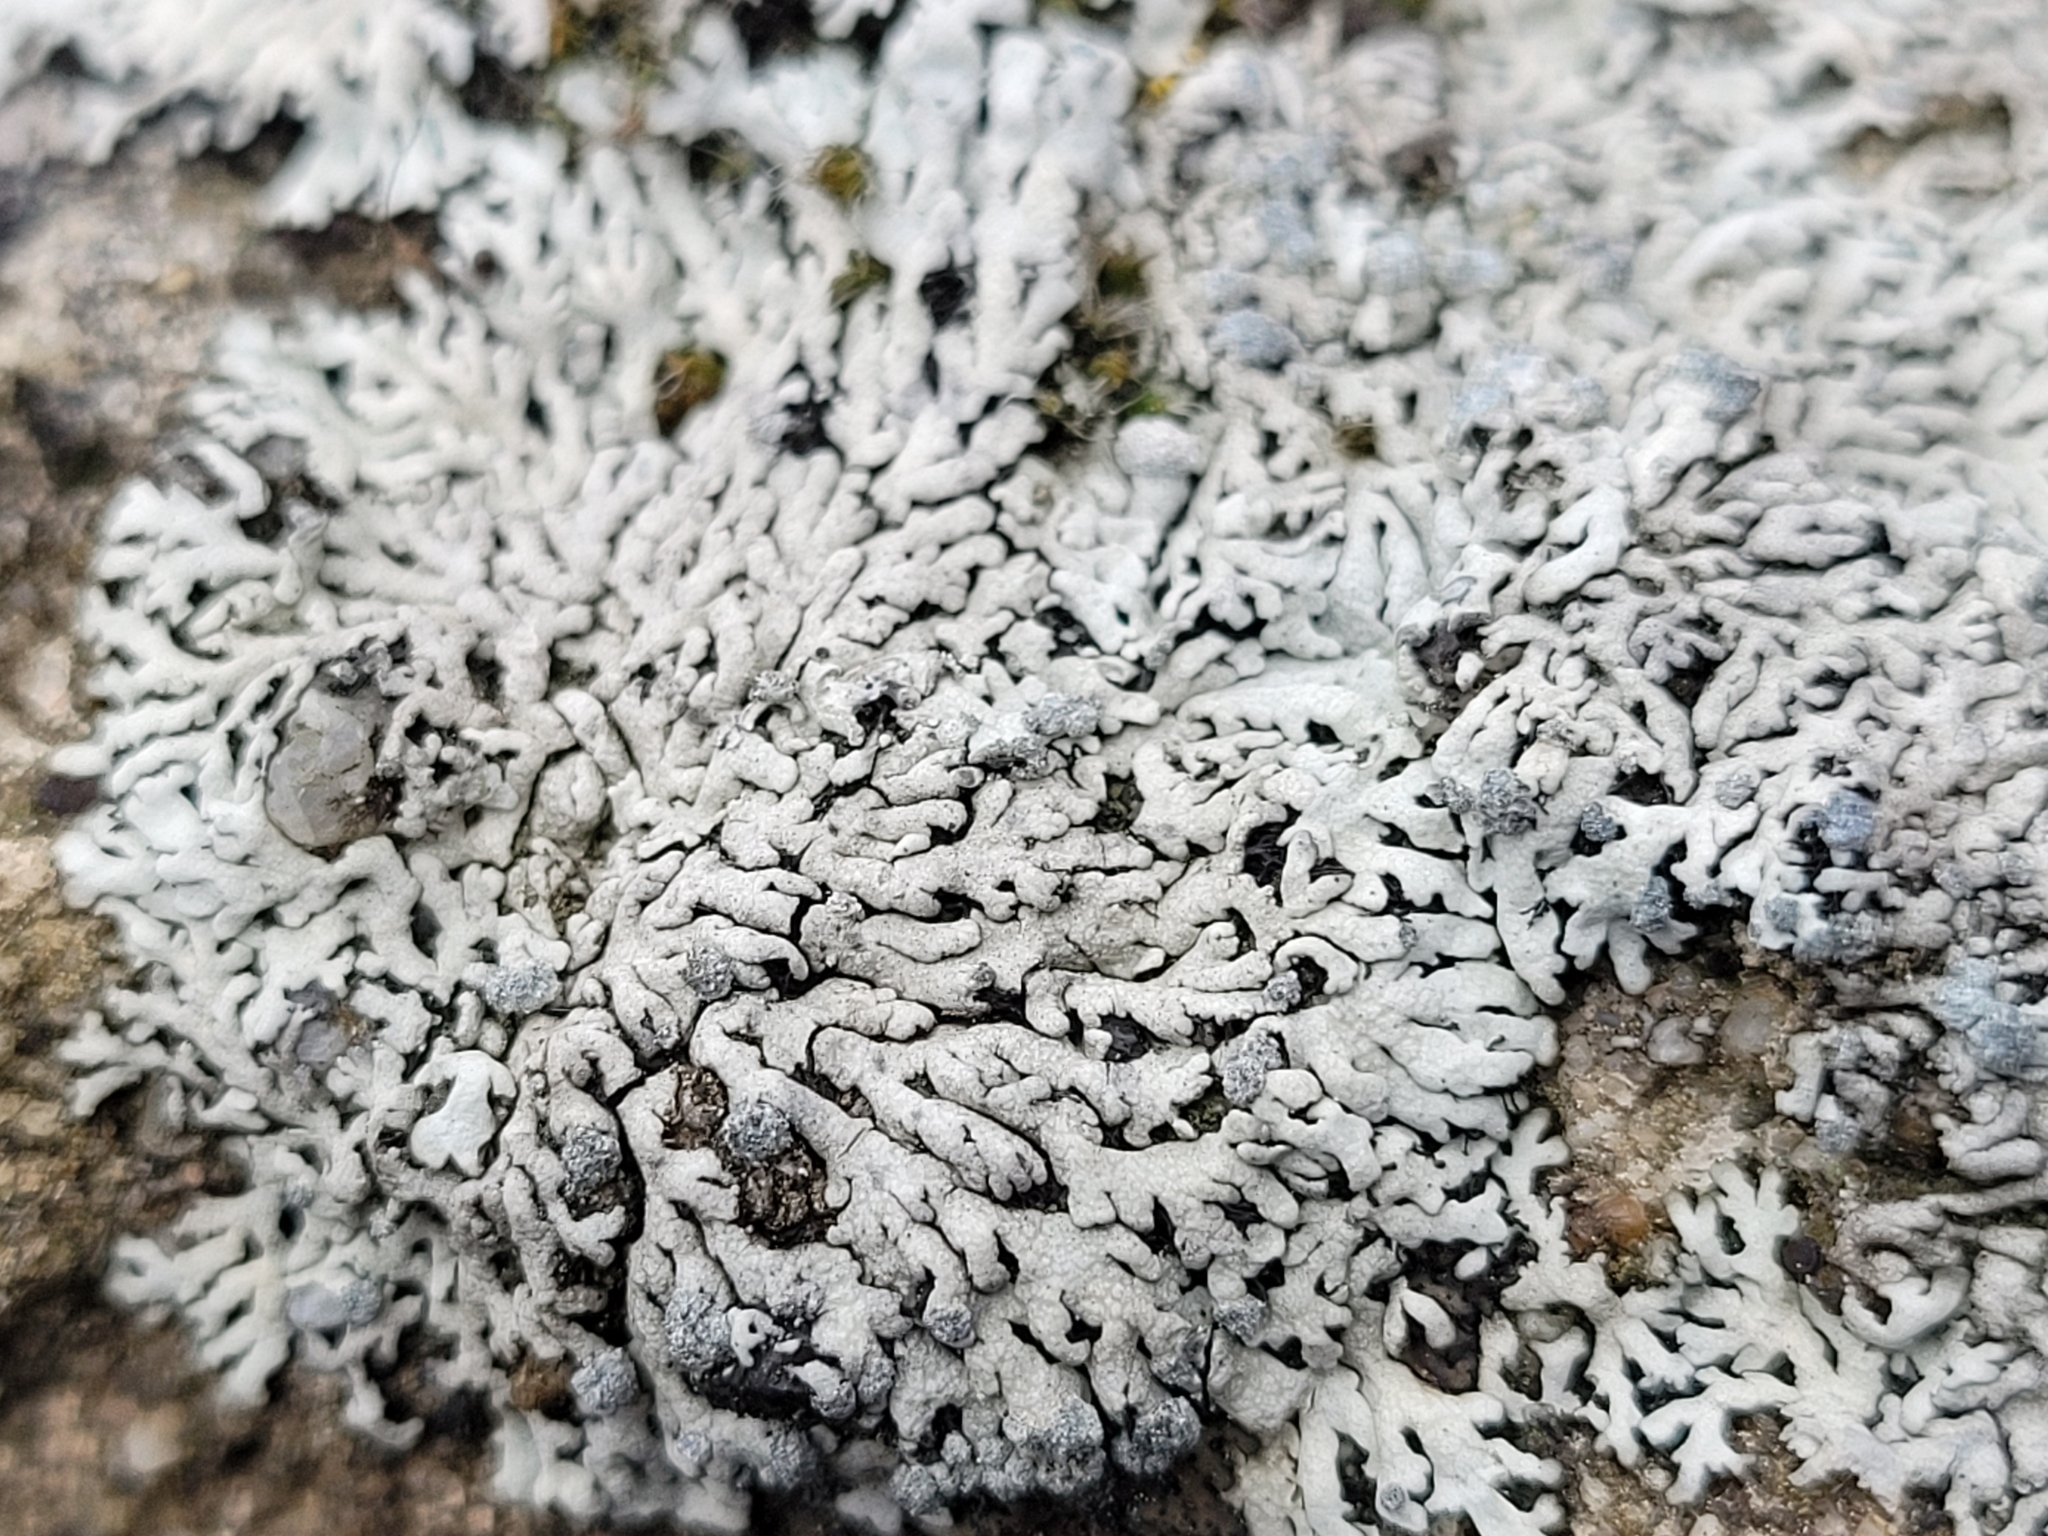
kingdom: Fungi
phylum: Ascomycota
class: Lecanoromycetes
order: Caliciales
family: Physciaceae
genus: Physcia
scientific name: Physcia caesia
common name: Blue-gray rosette lichen
